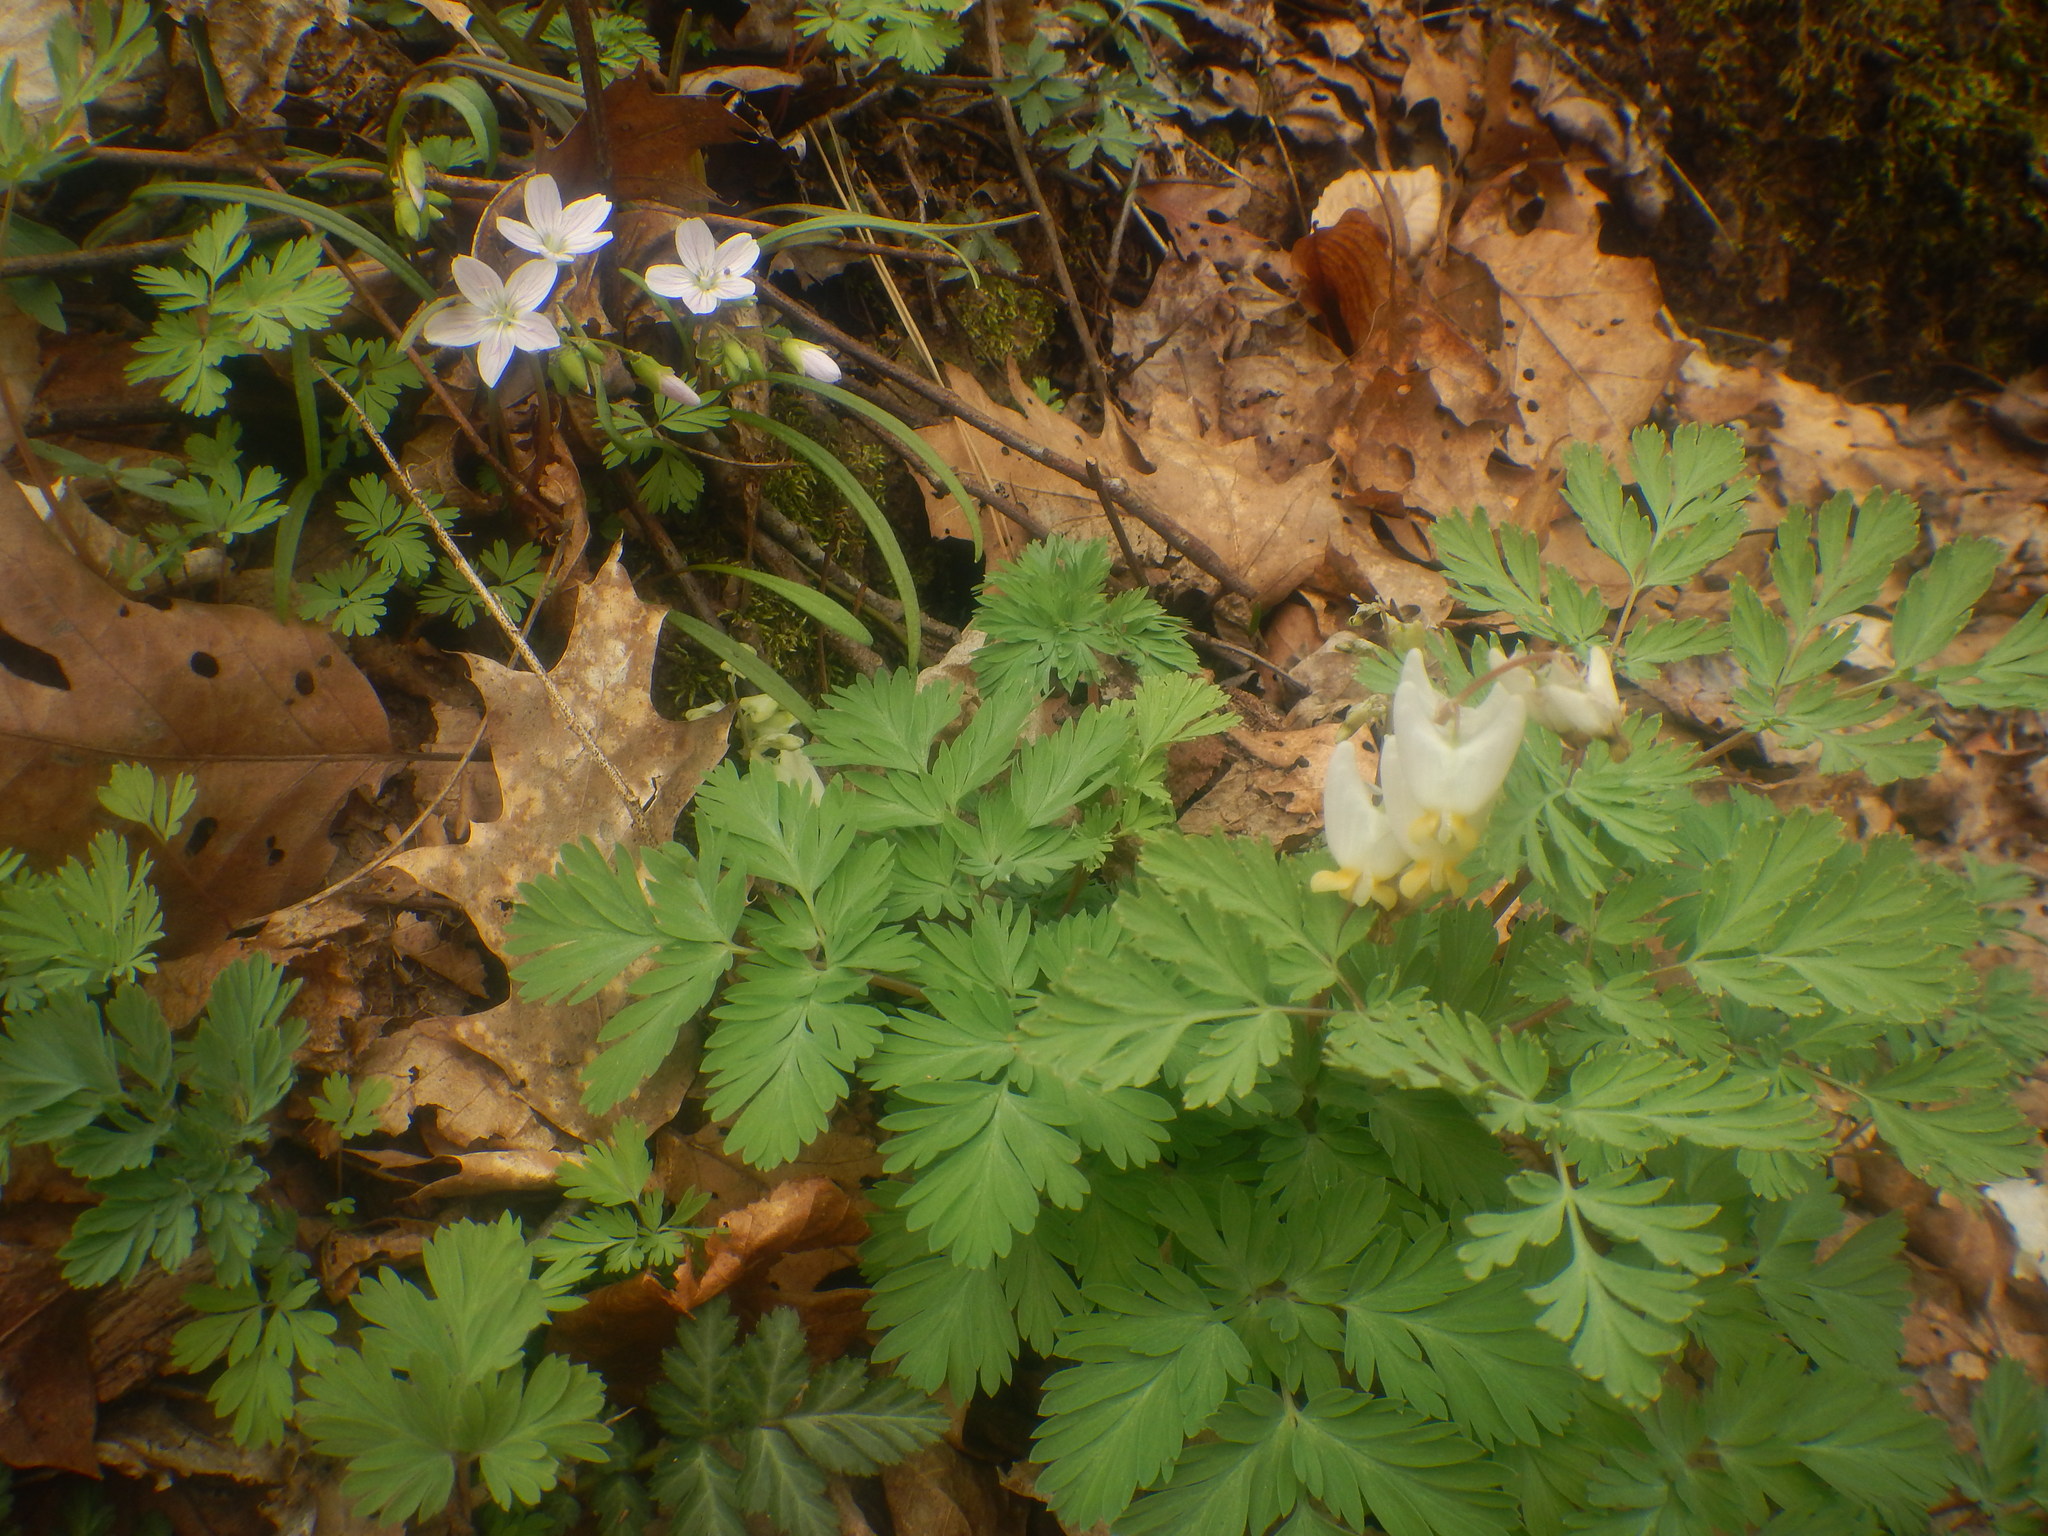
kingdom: Plantae
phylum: Tracheophyta
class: Magnoliopsida
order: Ranunculales
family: Papaveraceae
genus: Dicentra
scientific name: Dicentra cucullaria
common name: Dutchman's breeches
